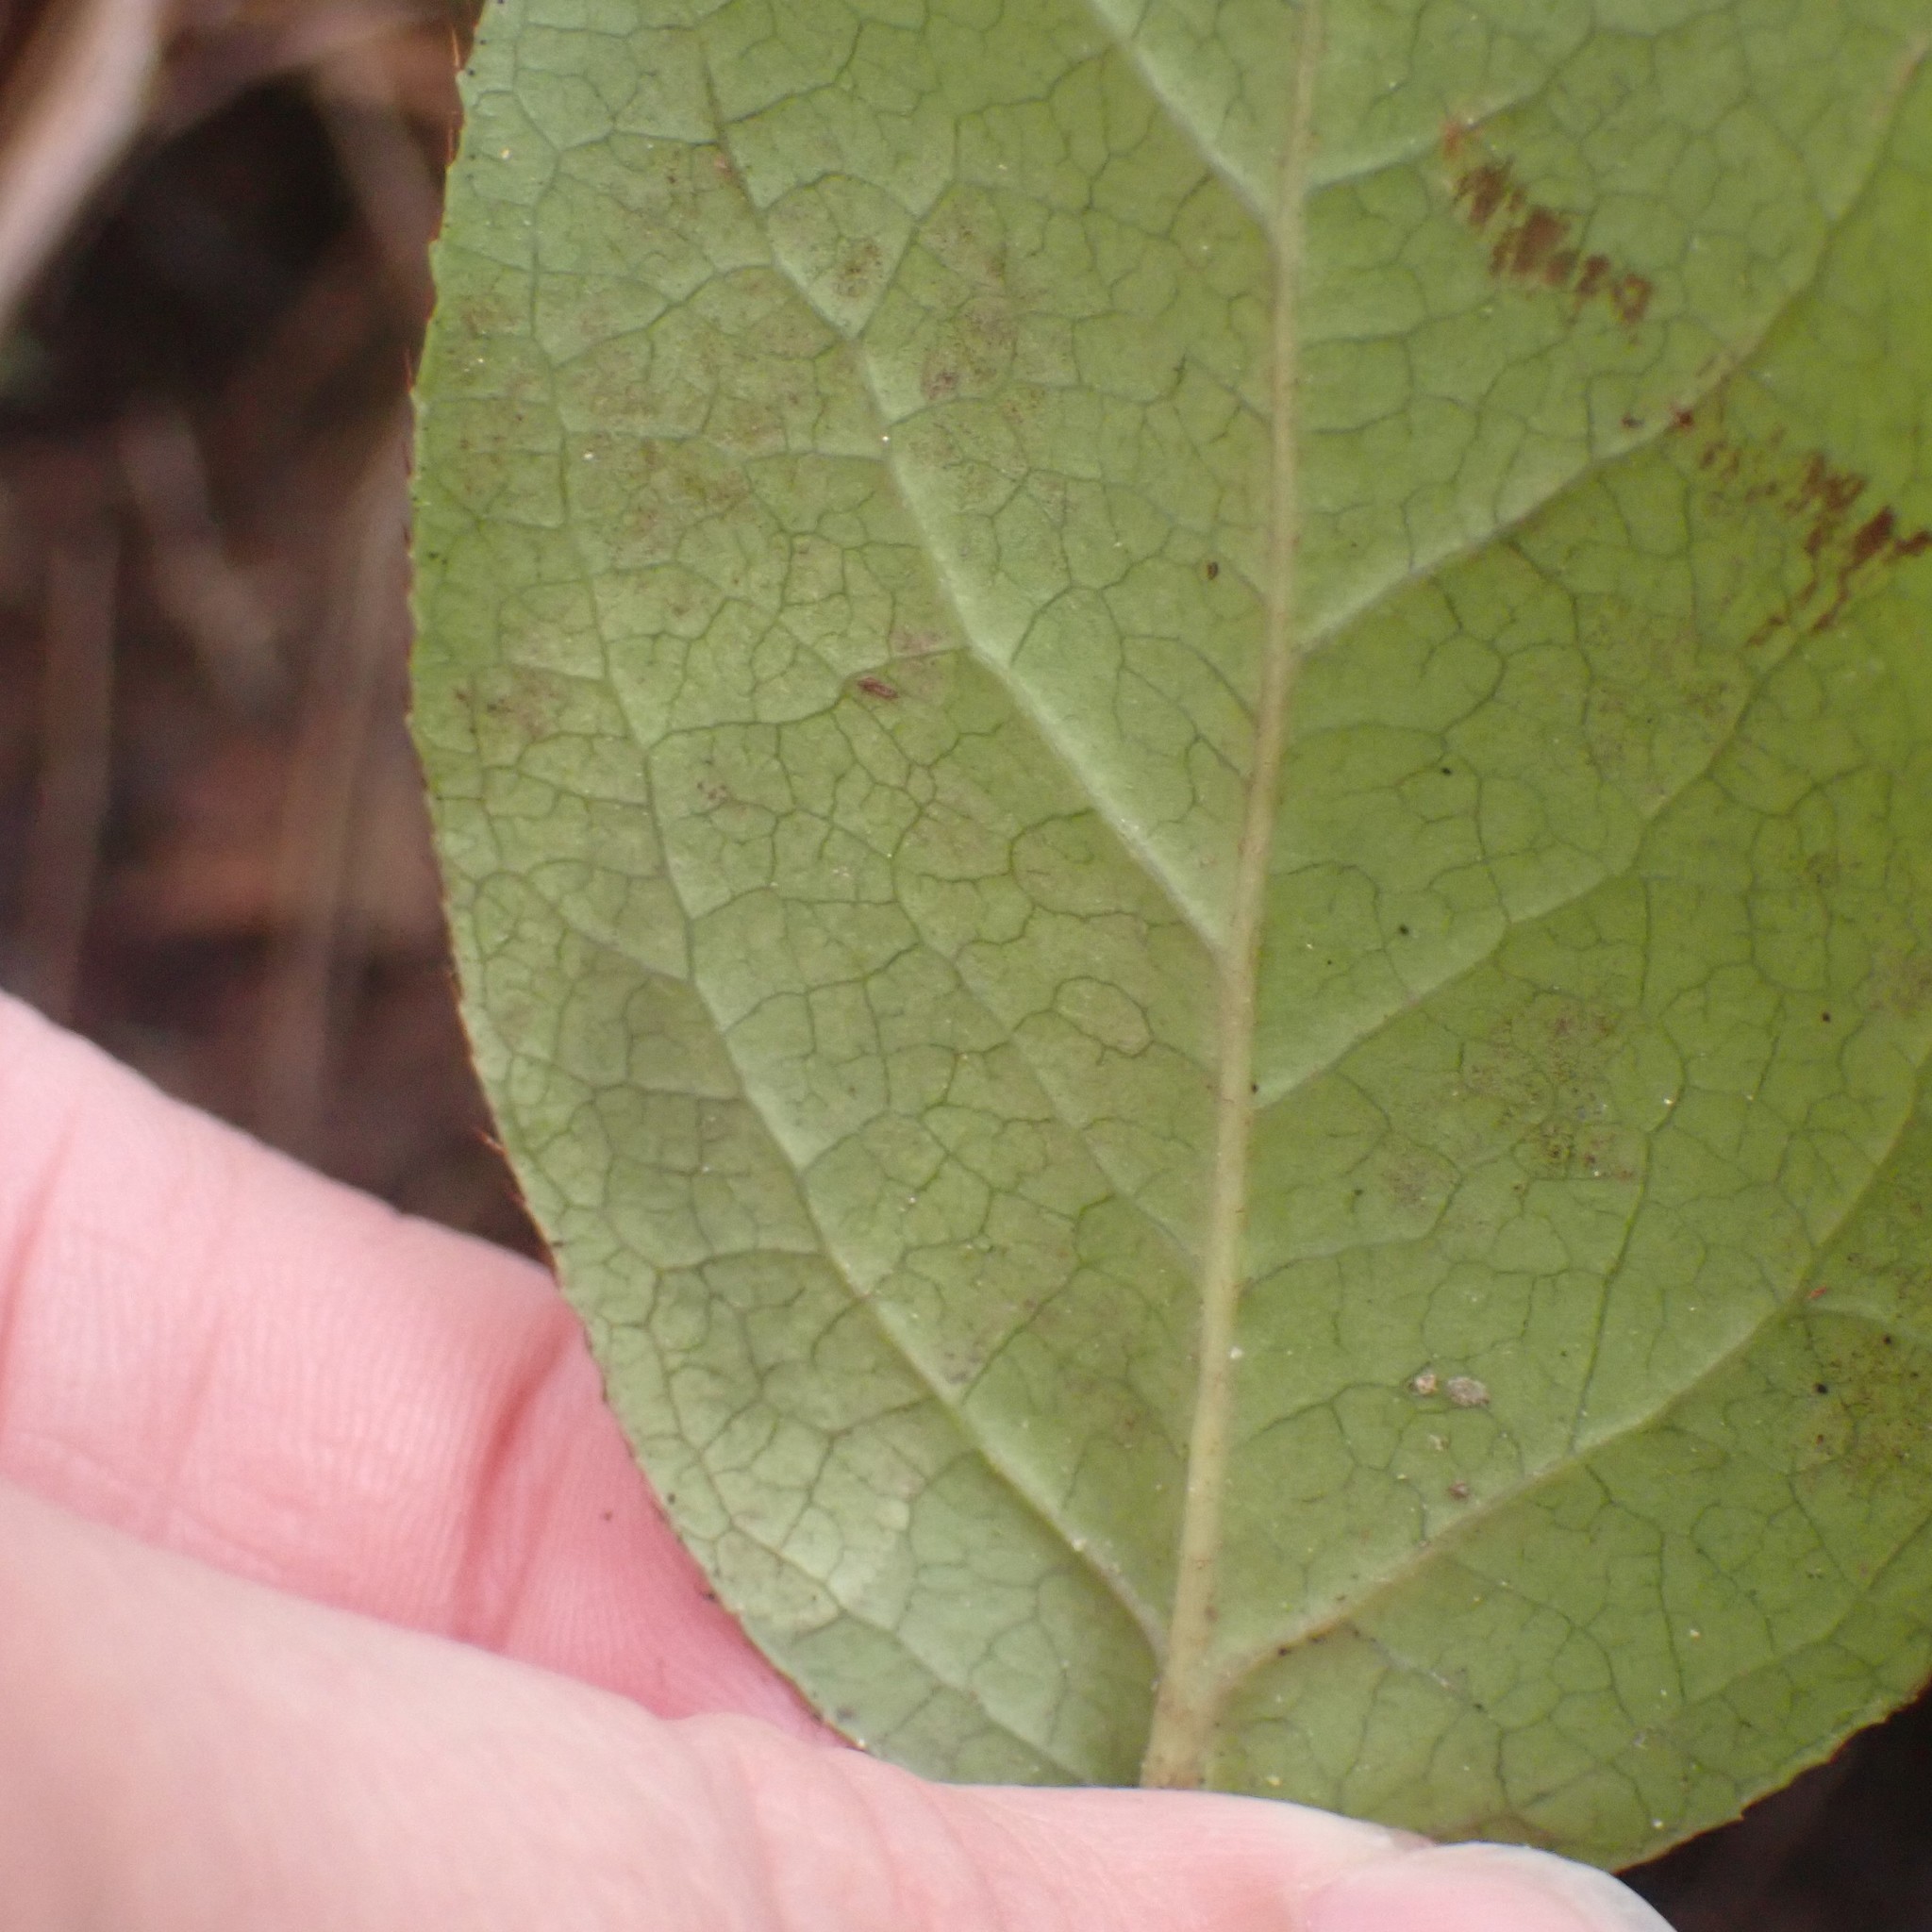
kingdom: Animalia
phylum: Arthropoda
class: Insecta
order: Lepidoptera
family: Gracillariidae
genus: Cameraria
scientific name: Cameraria gaultheriella
